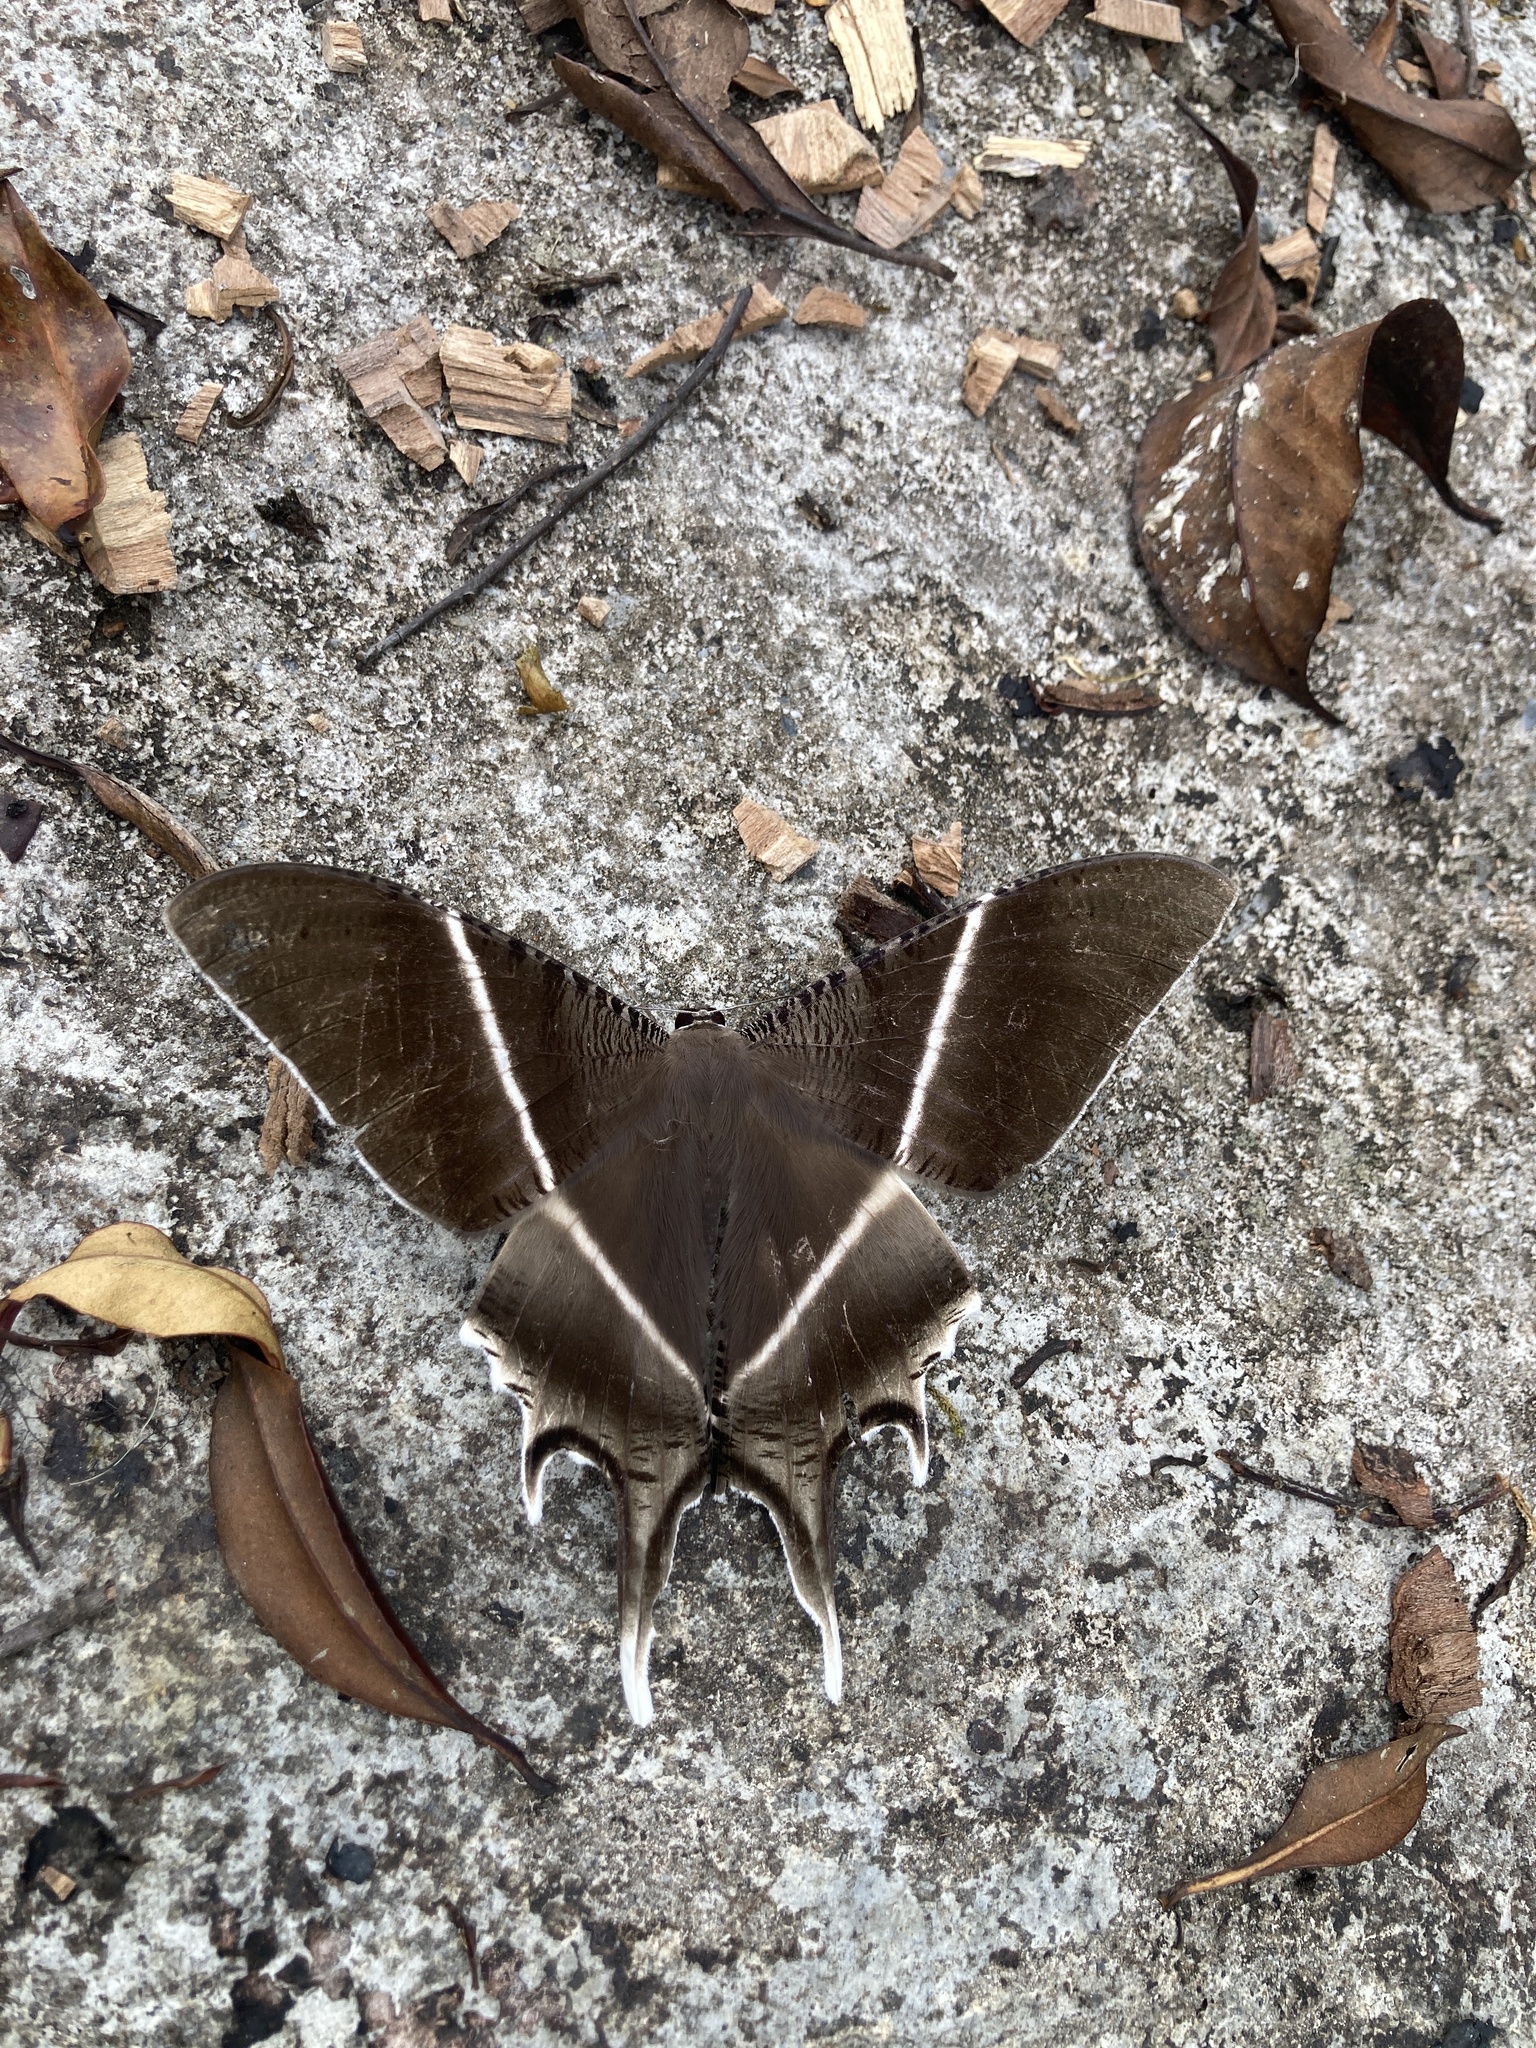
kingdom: Animalia
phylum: Arthropoda
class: Insecta
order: Lepidoptera
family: Uraniidae
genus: Lyssa
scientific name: Lyssa menoetius
